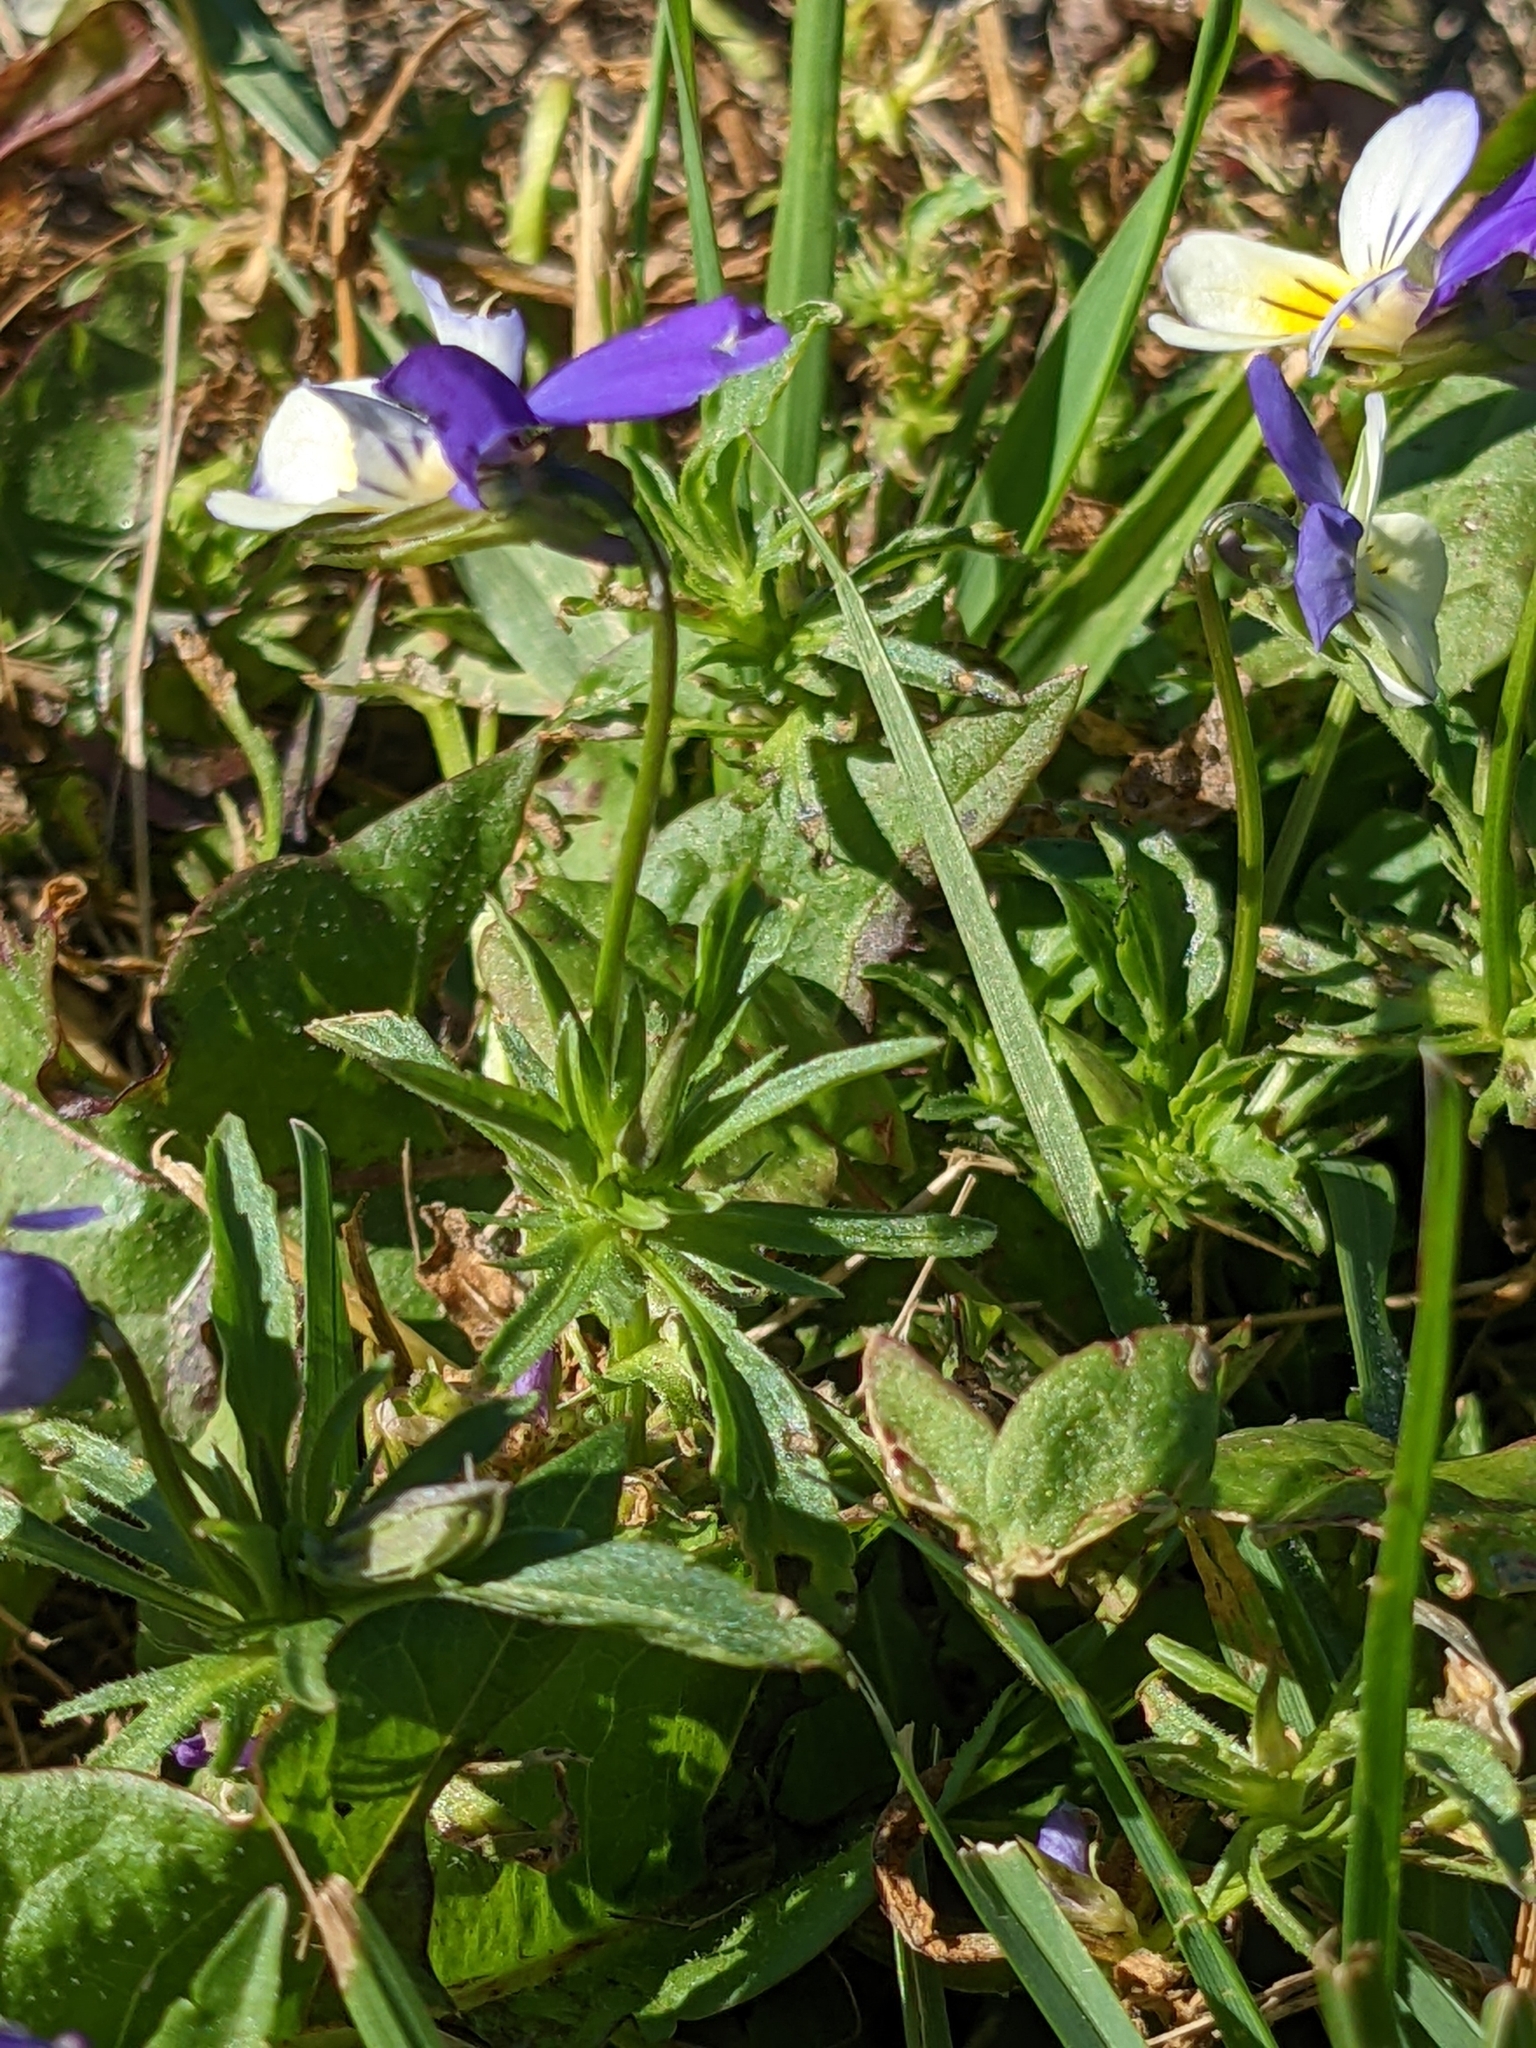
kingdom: Plantae
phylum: Tracheophyta
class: Magnoliopsida
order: Malpighiales
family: Violaceae
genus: Viola
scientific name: Viola tricolor
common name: Pansy
